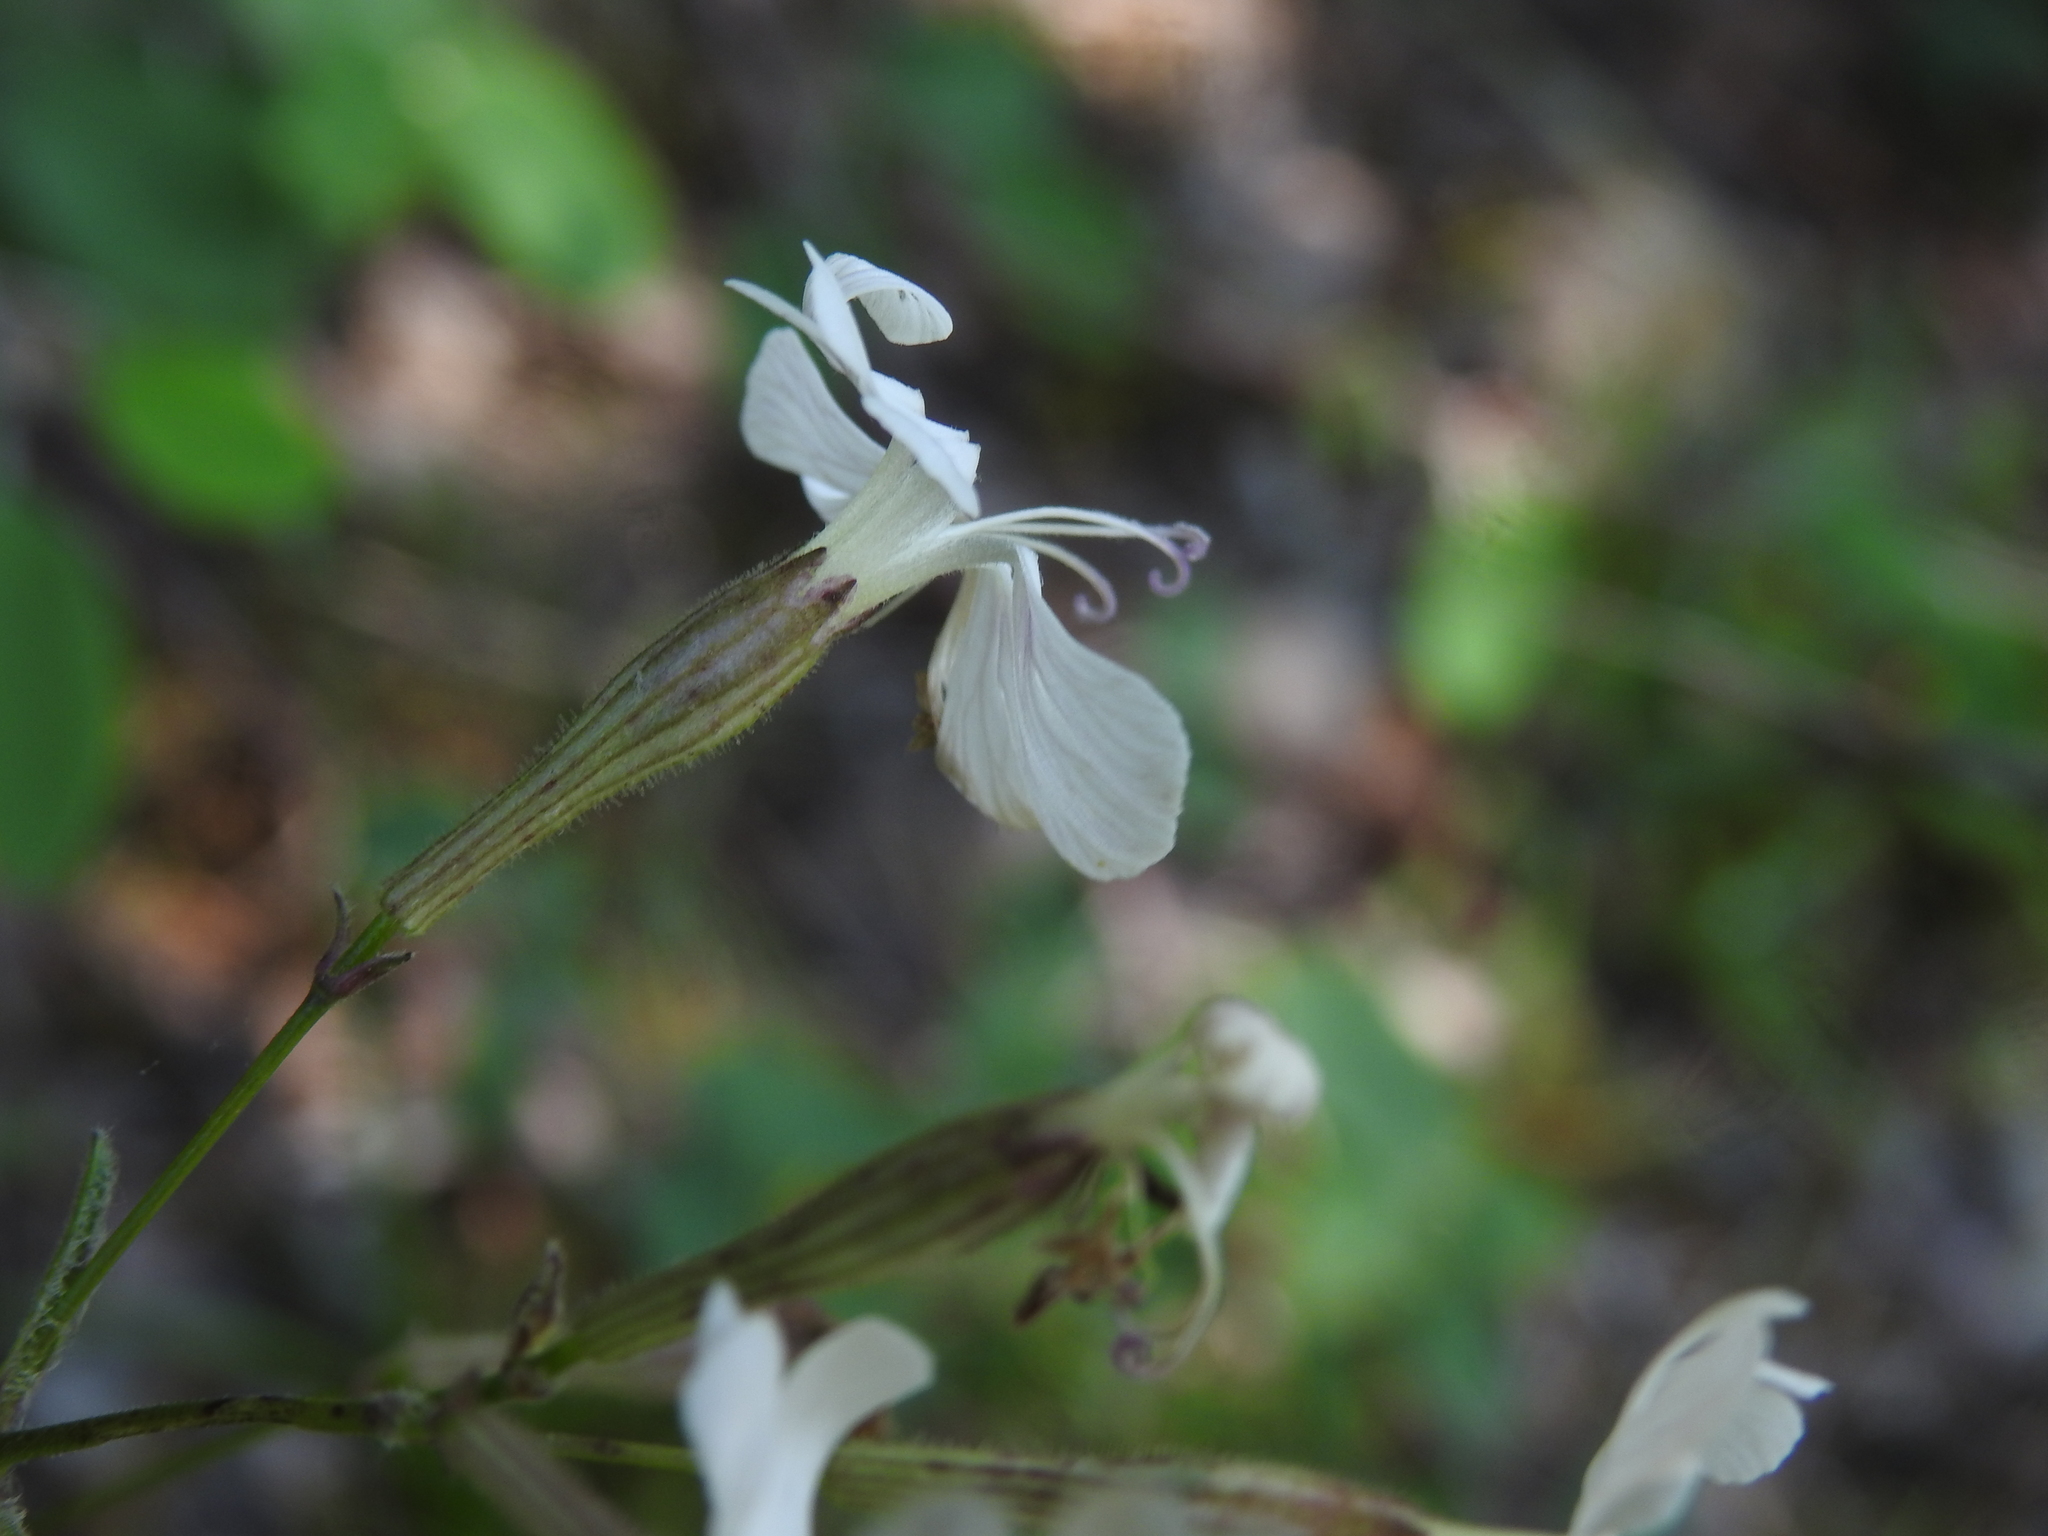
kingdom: Plantae
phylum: Tracheophyta
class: Magnoliopsida
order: Caryophyllales
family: Caryophyllaceae
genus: Silene
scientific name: Silene italica
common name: Italian catchfly
